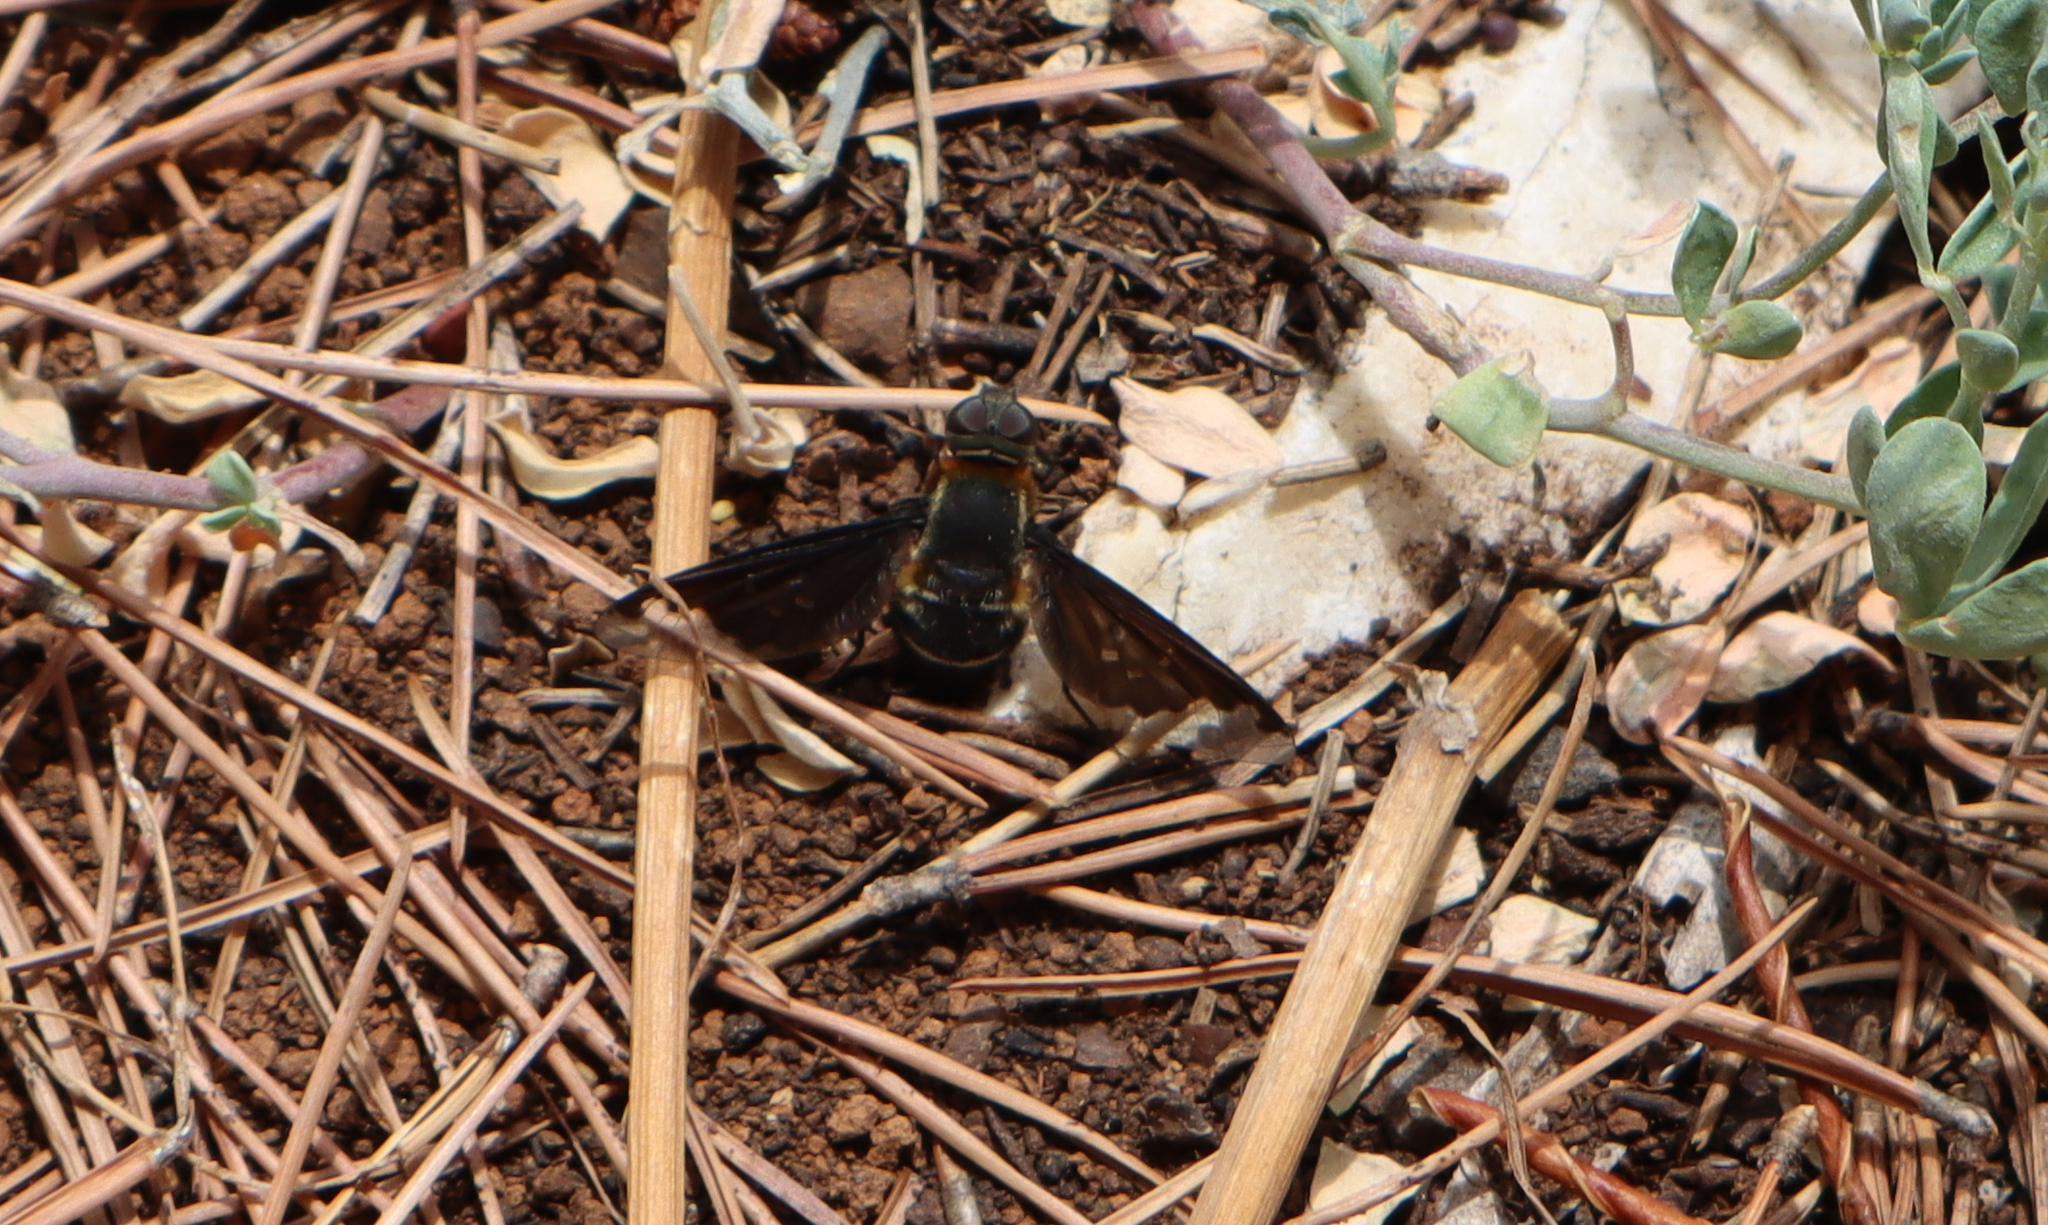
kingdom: Animalia
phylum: Arthropoda
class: Insecta
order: Diptera
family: Bombyliidae
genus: Hemipenthes
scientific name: Hemipenthes velutina
